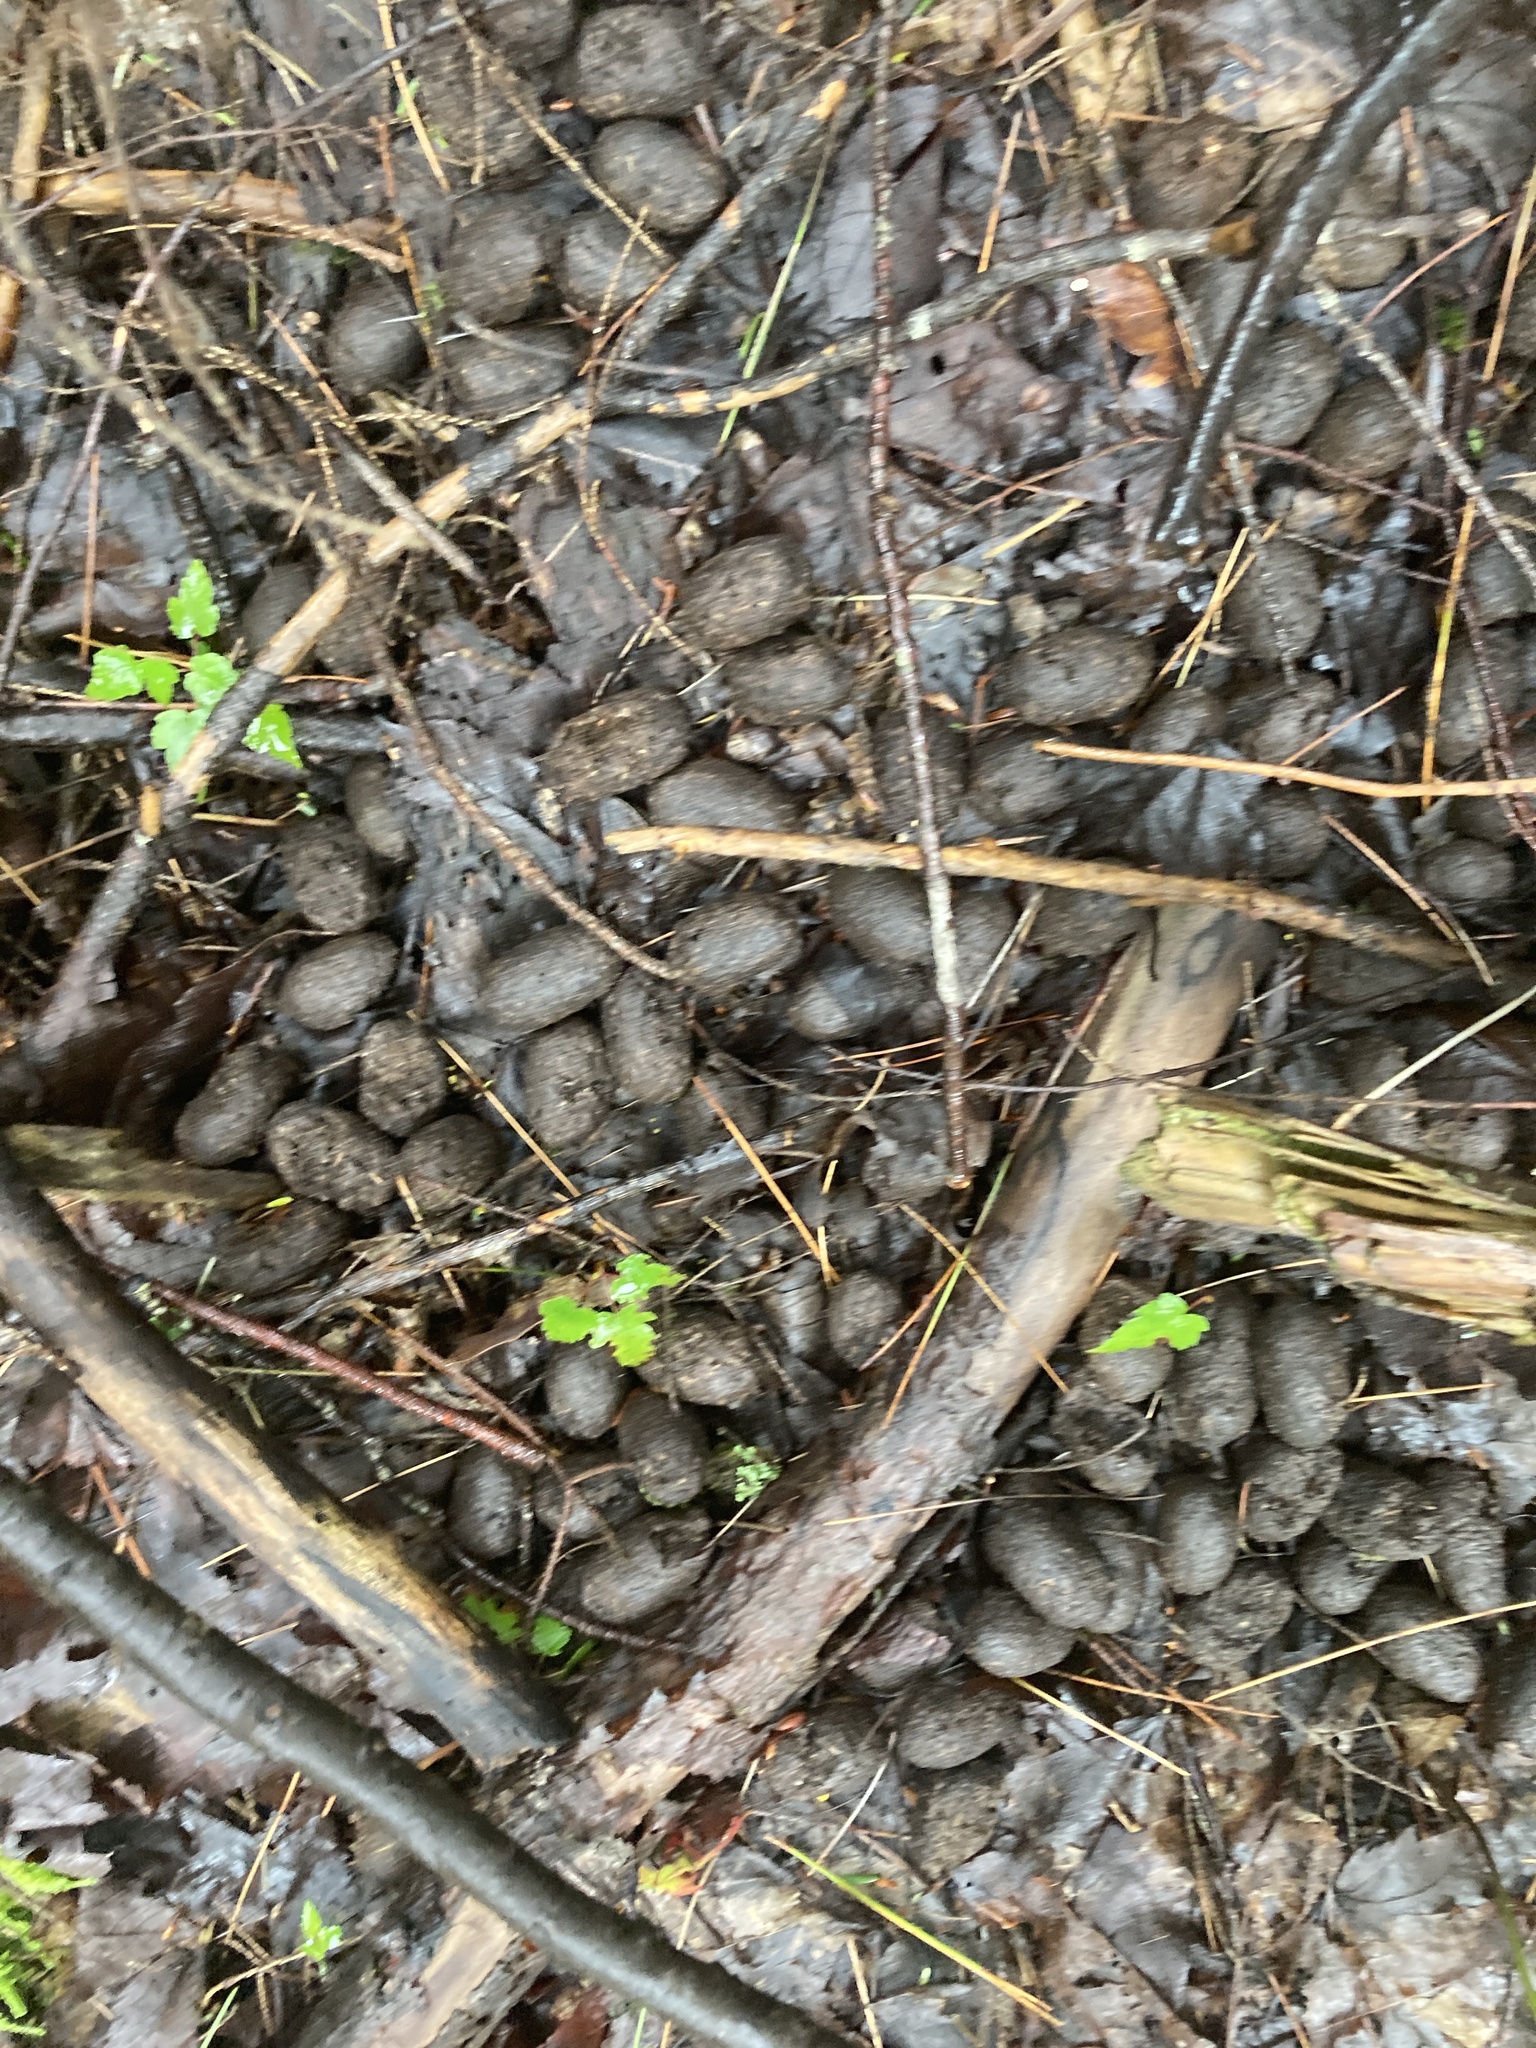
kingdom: Animalia
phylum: Chordata
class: Mammalia
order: Artiodactyla
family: Cervidae
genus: Alces
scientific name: Alces alces
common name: Moose
